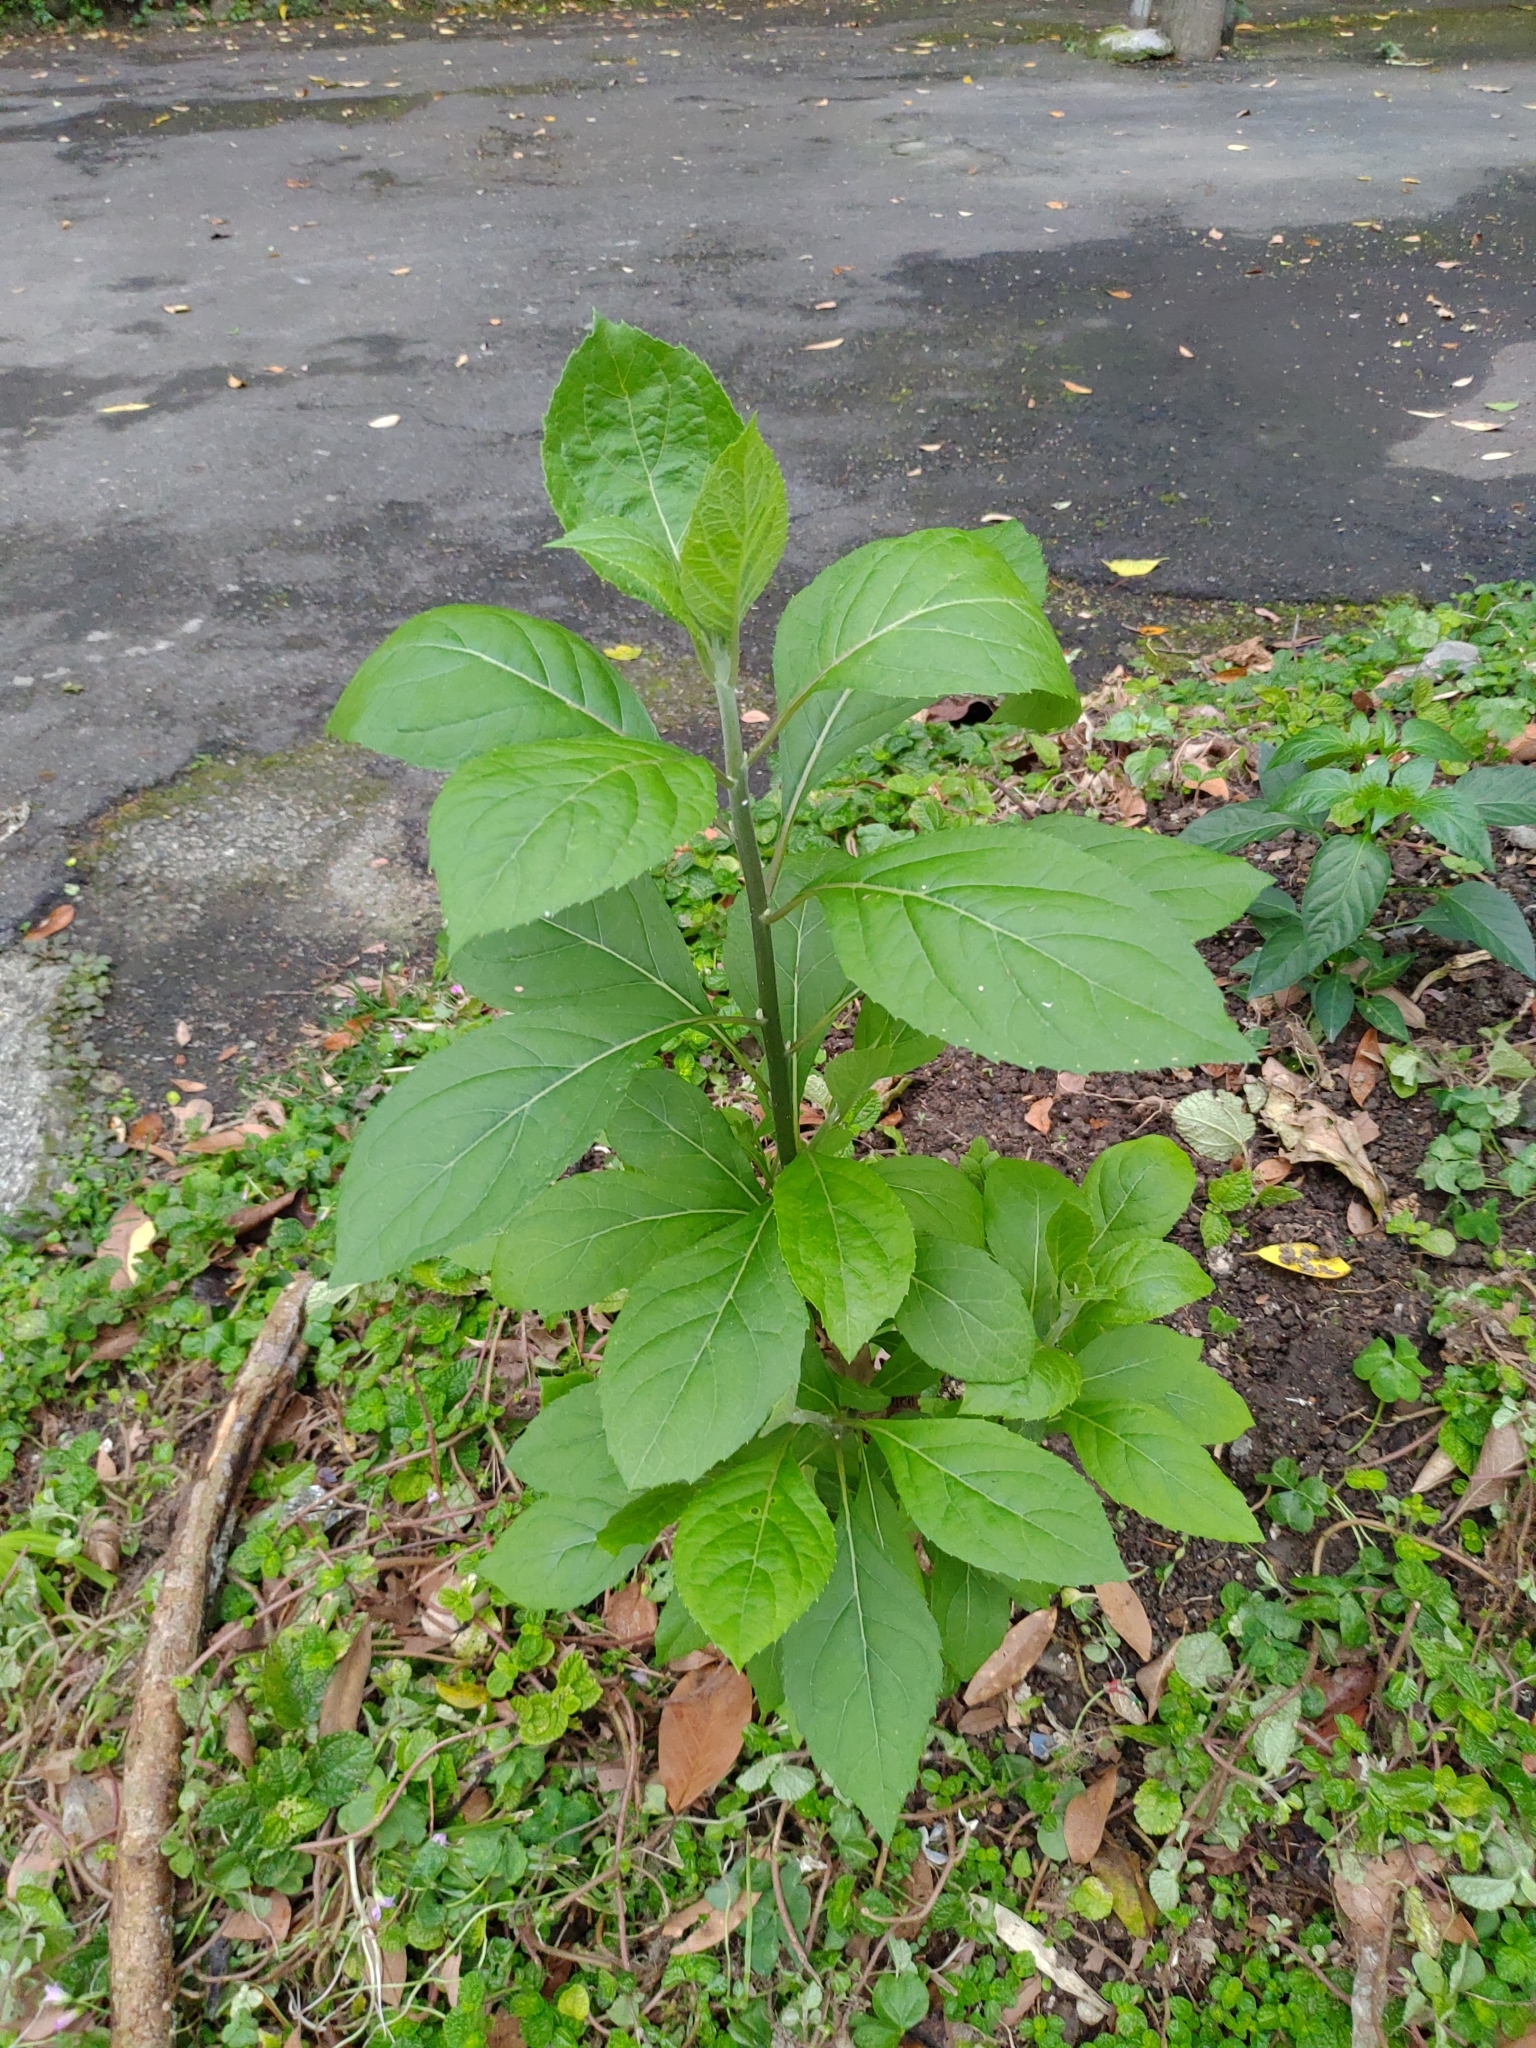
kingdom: Plantae
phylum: Tracheophyta
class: Magnoliopsida
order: Asterales
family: Asteraceae
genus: Gymnanthemum
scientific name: Gymnanthemum amygdalinum
